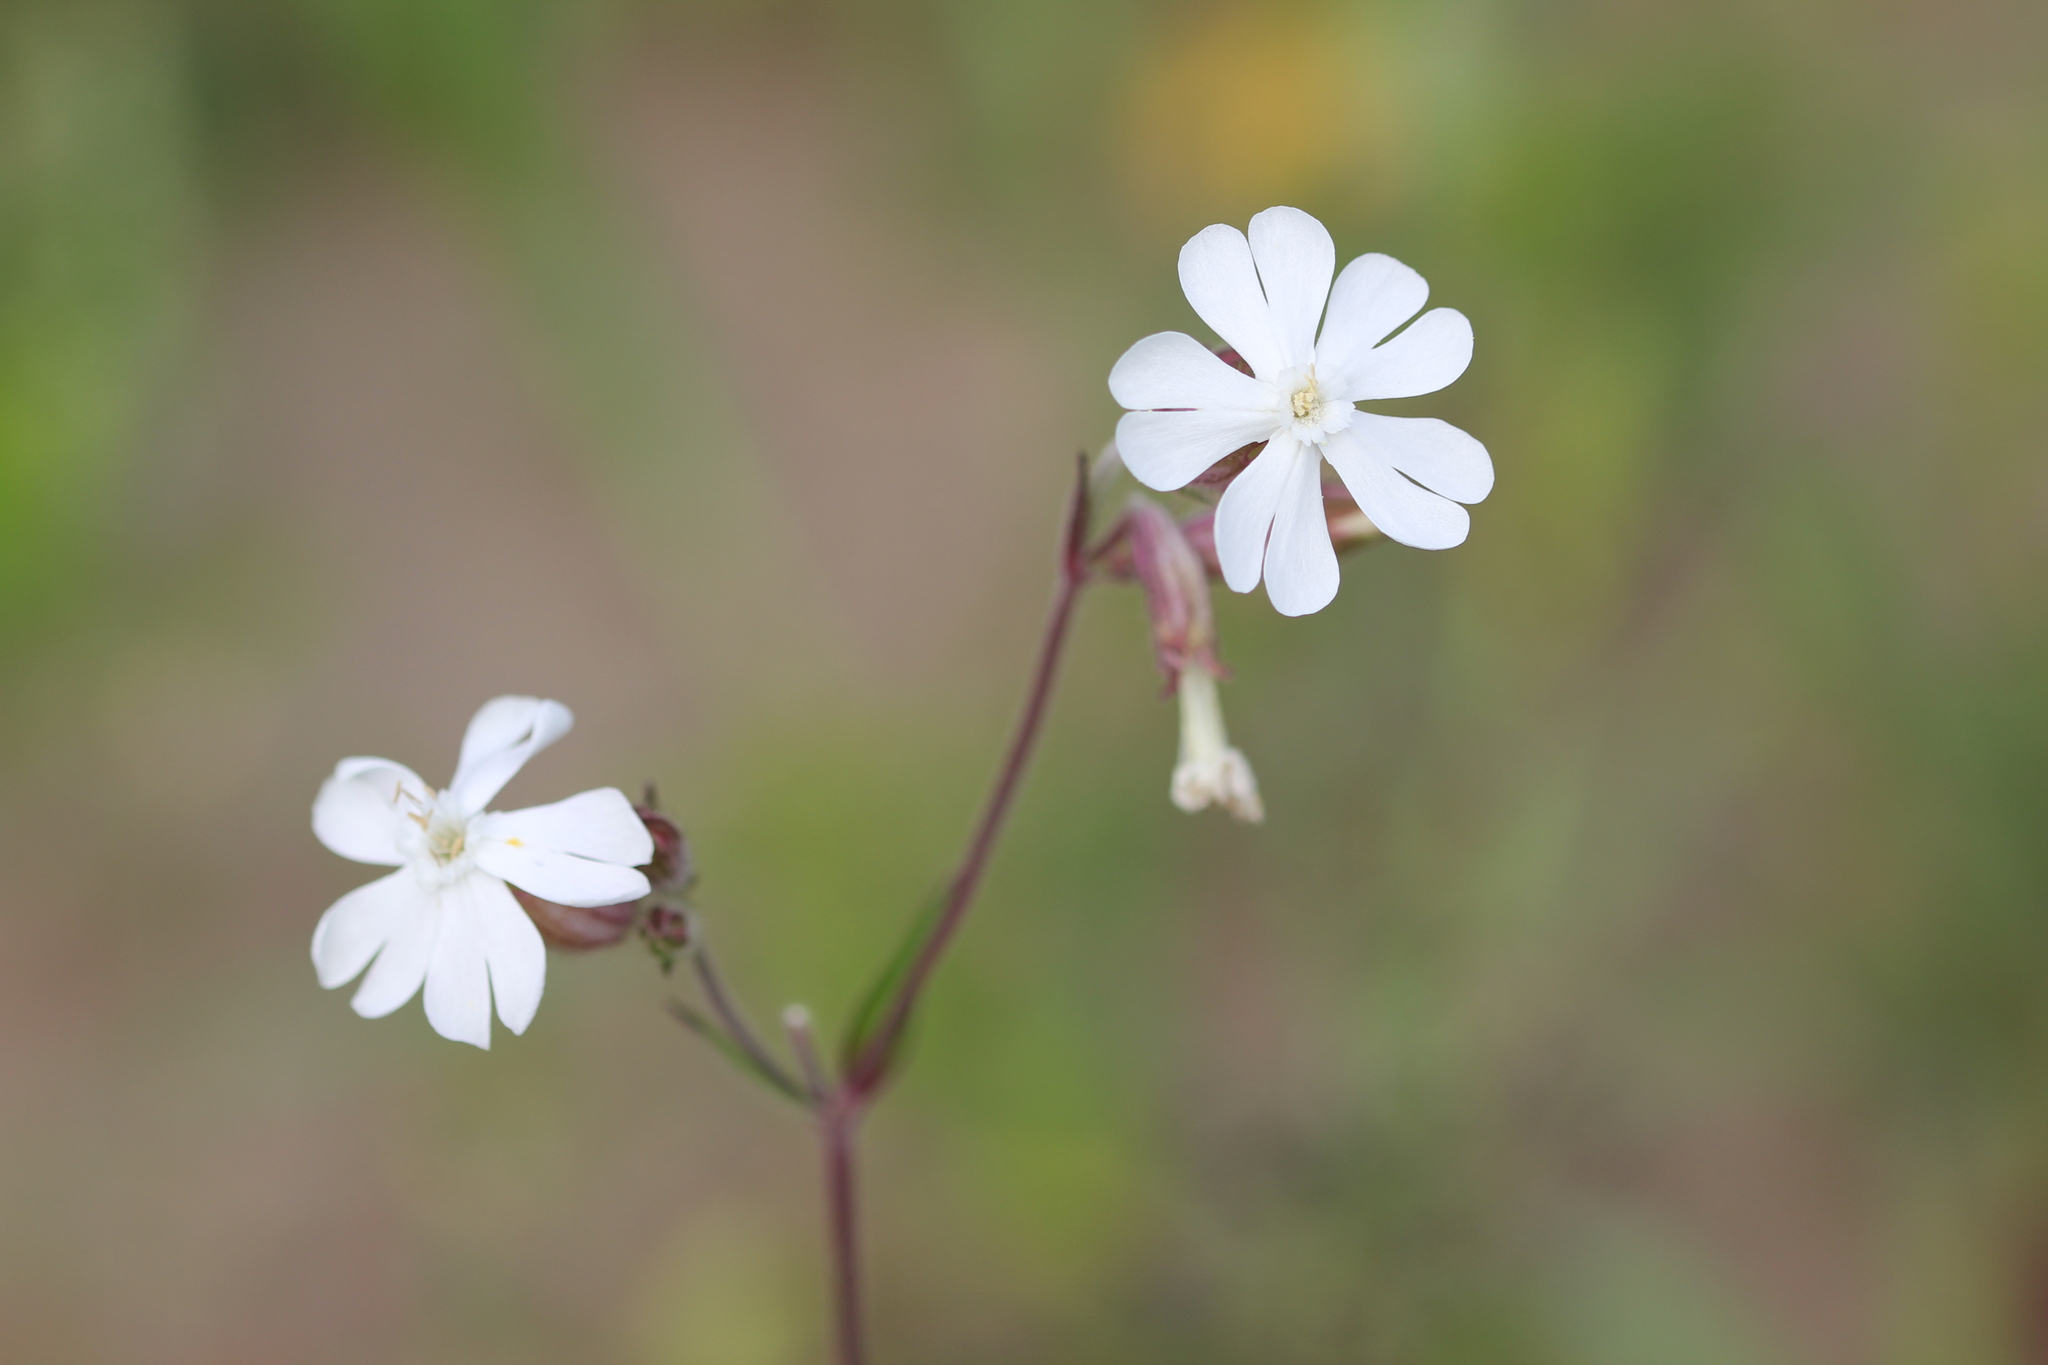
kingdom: Plantae
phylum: Tracheophyta
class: Magnoliopsida
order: Caryophyllales
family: Caryophyllaceae
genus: Silene
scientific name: Silene latifolia
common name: White campion
